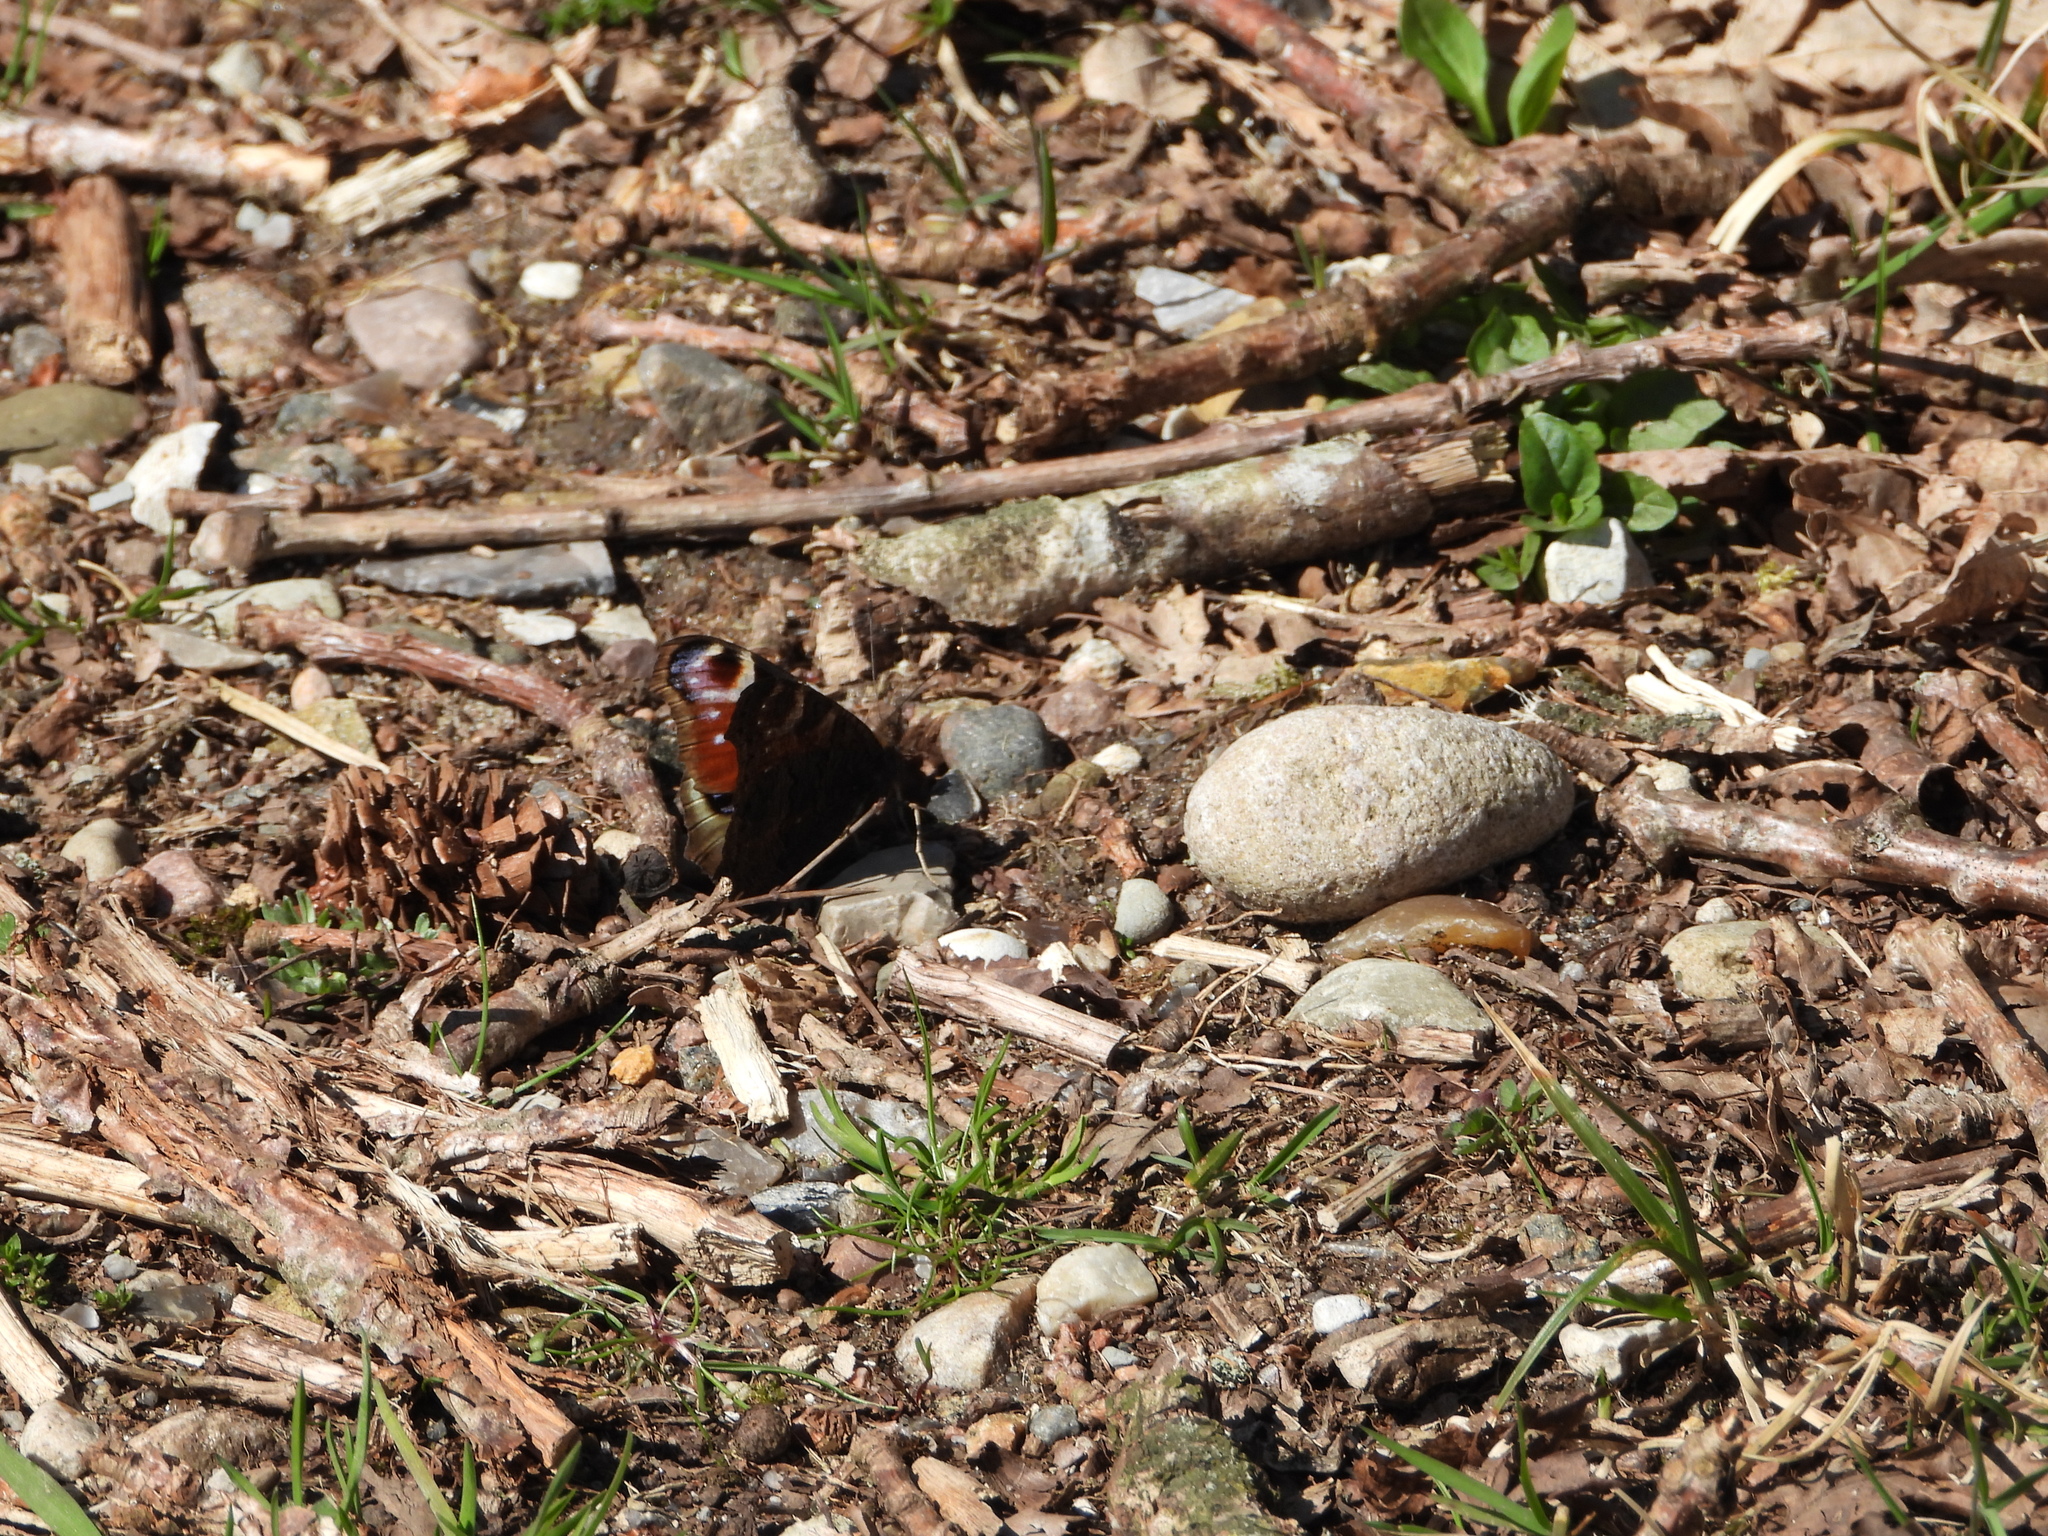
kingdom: Animalia
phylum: Arthropoda
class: Insecta
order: Lepidoptera
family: Nymphalidae
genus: Aglais
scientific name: Aglais io
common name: Peacock
